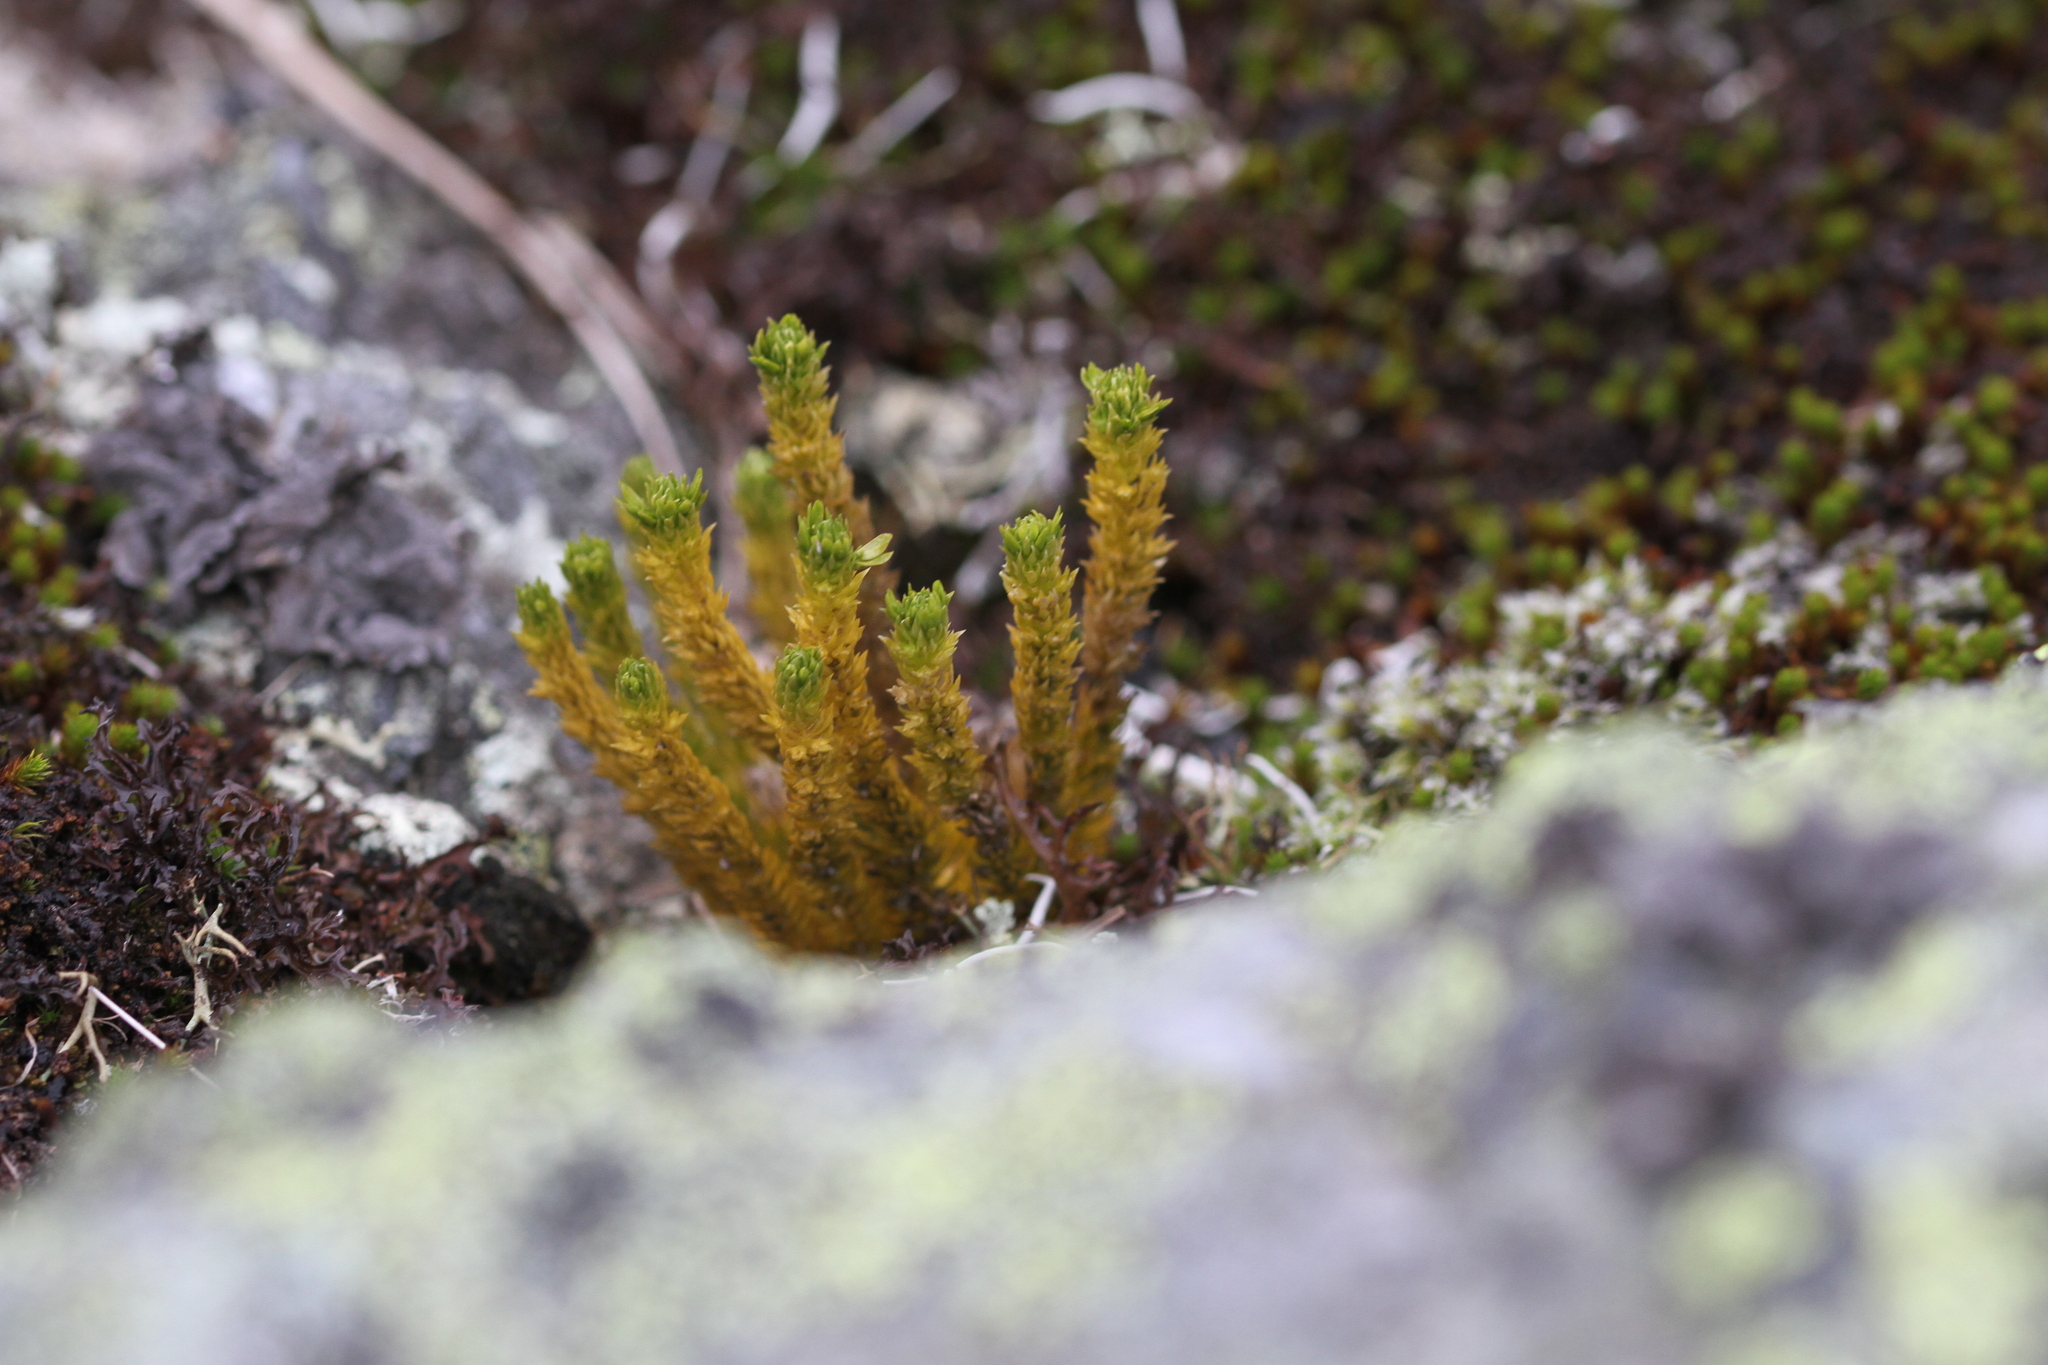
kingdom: Plantae
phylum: Tracheophyta
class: Lycopodiopsida
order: Lycopodiales
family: Lycopodiaceae
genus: Huperzia
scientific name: Huperzia selago
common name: Northern firmoss
